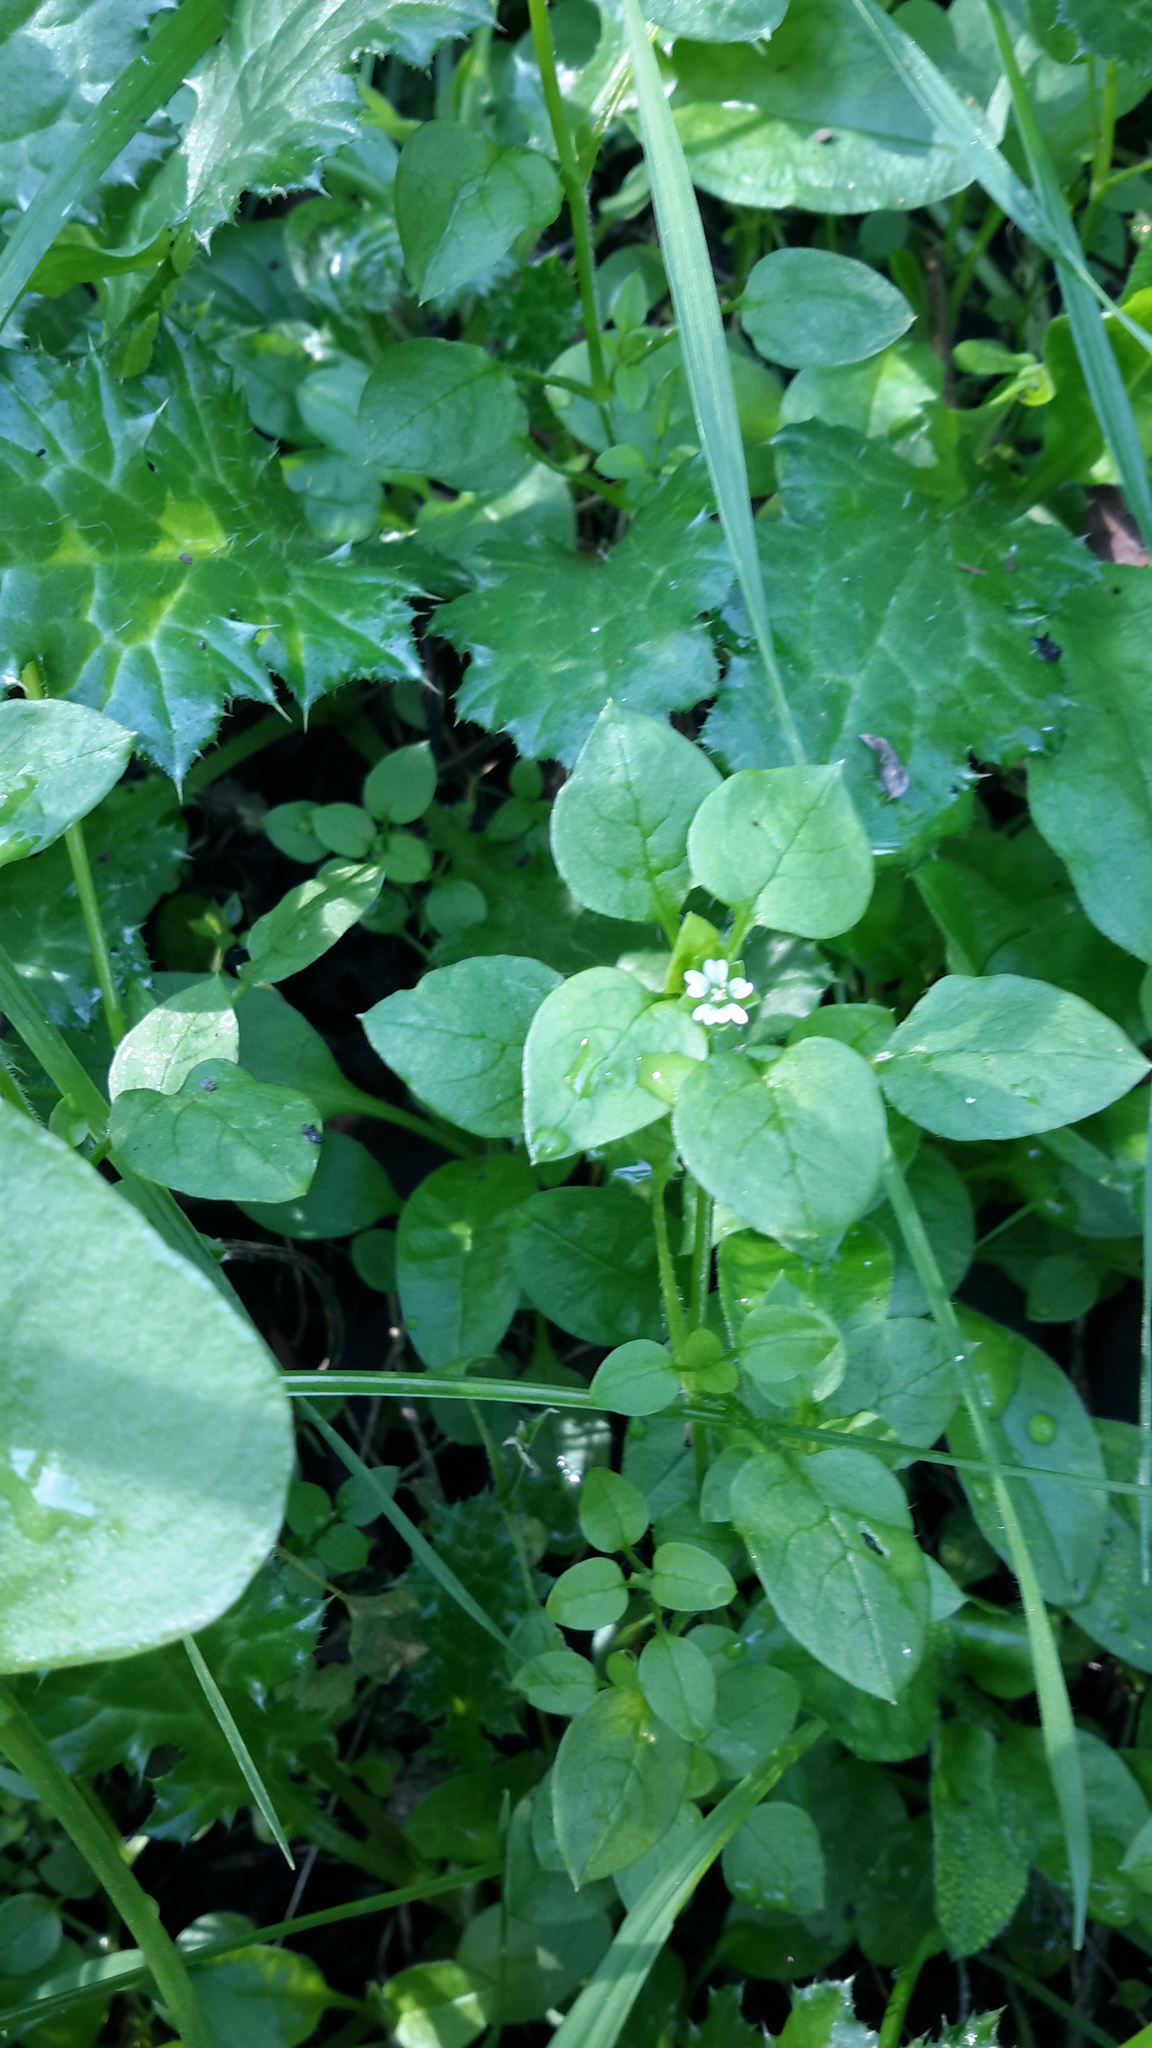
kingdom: Plantae
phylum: Tracheophyta
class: Magnoliopsida
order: Caryophyllales
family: Caryophyllaceae
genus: Stellaria
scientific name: Stellaria media
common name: Common chickweed
